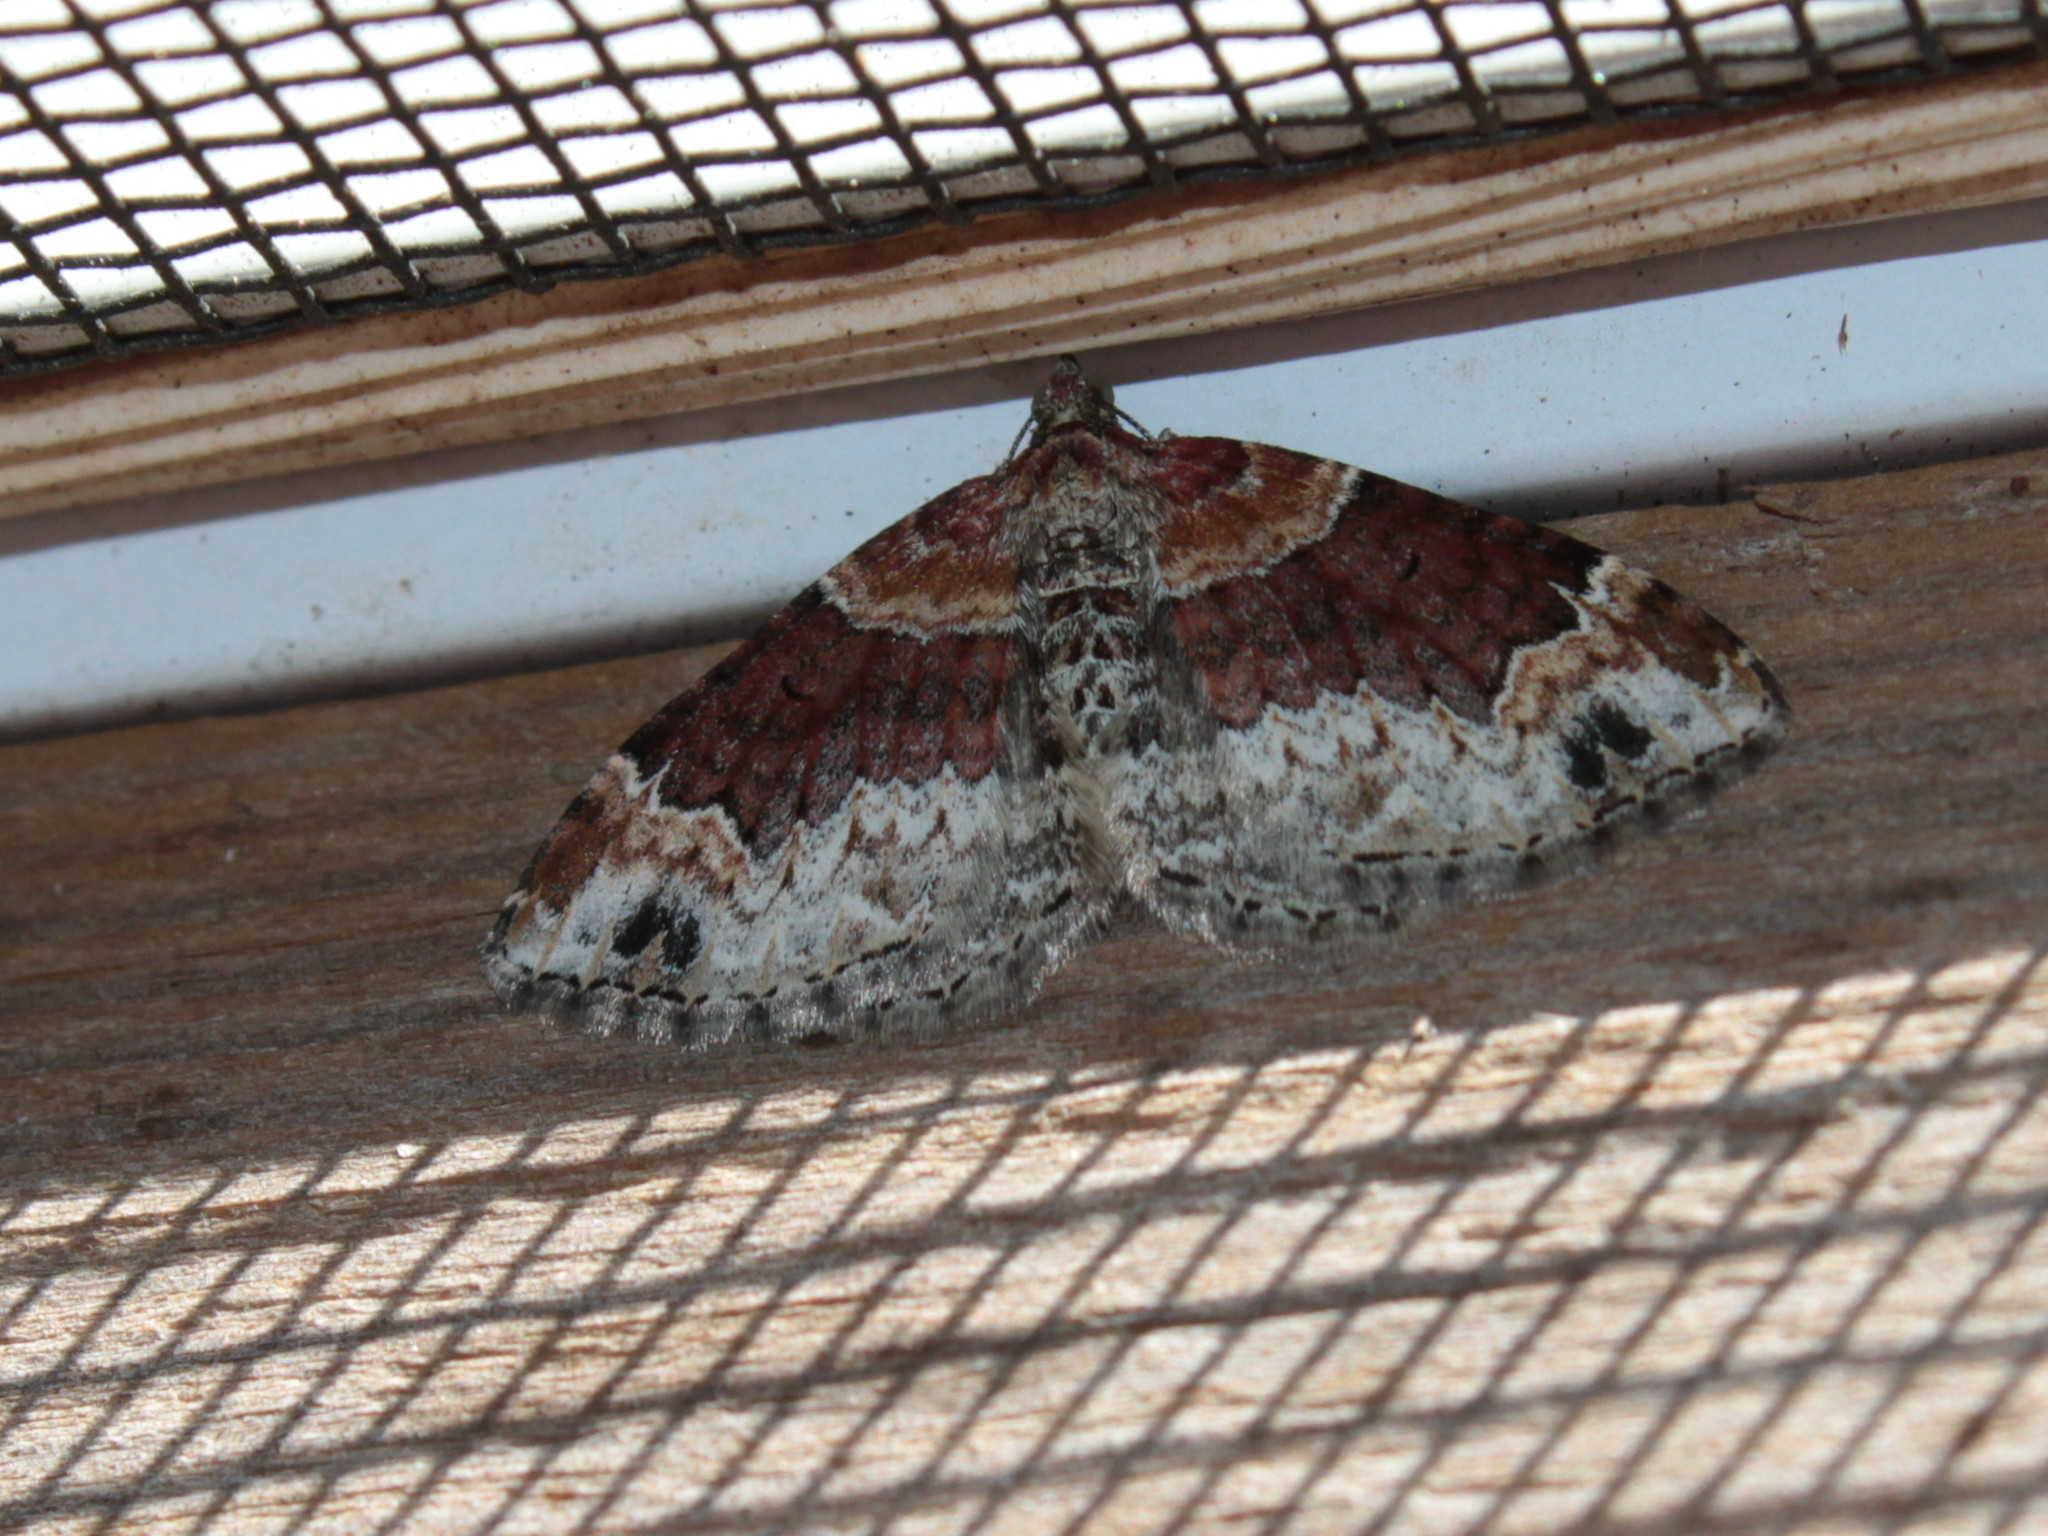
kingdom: Animalia
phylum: Arthropoda
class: Insecta
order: Lepidoptera
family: Geometridae
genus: Xanthorhoe
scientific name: Xanthorhoe ferrugata
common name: Dark-barred twin-spot carpet
